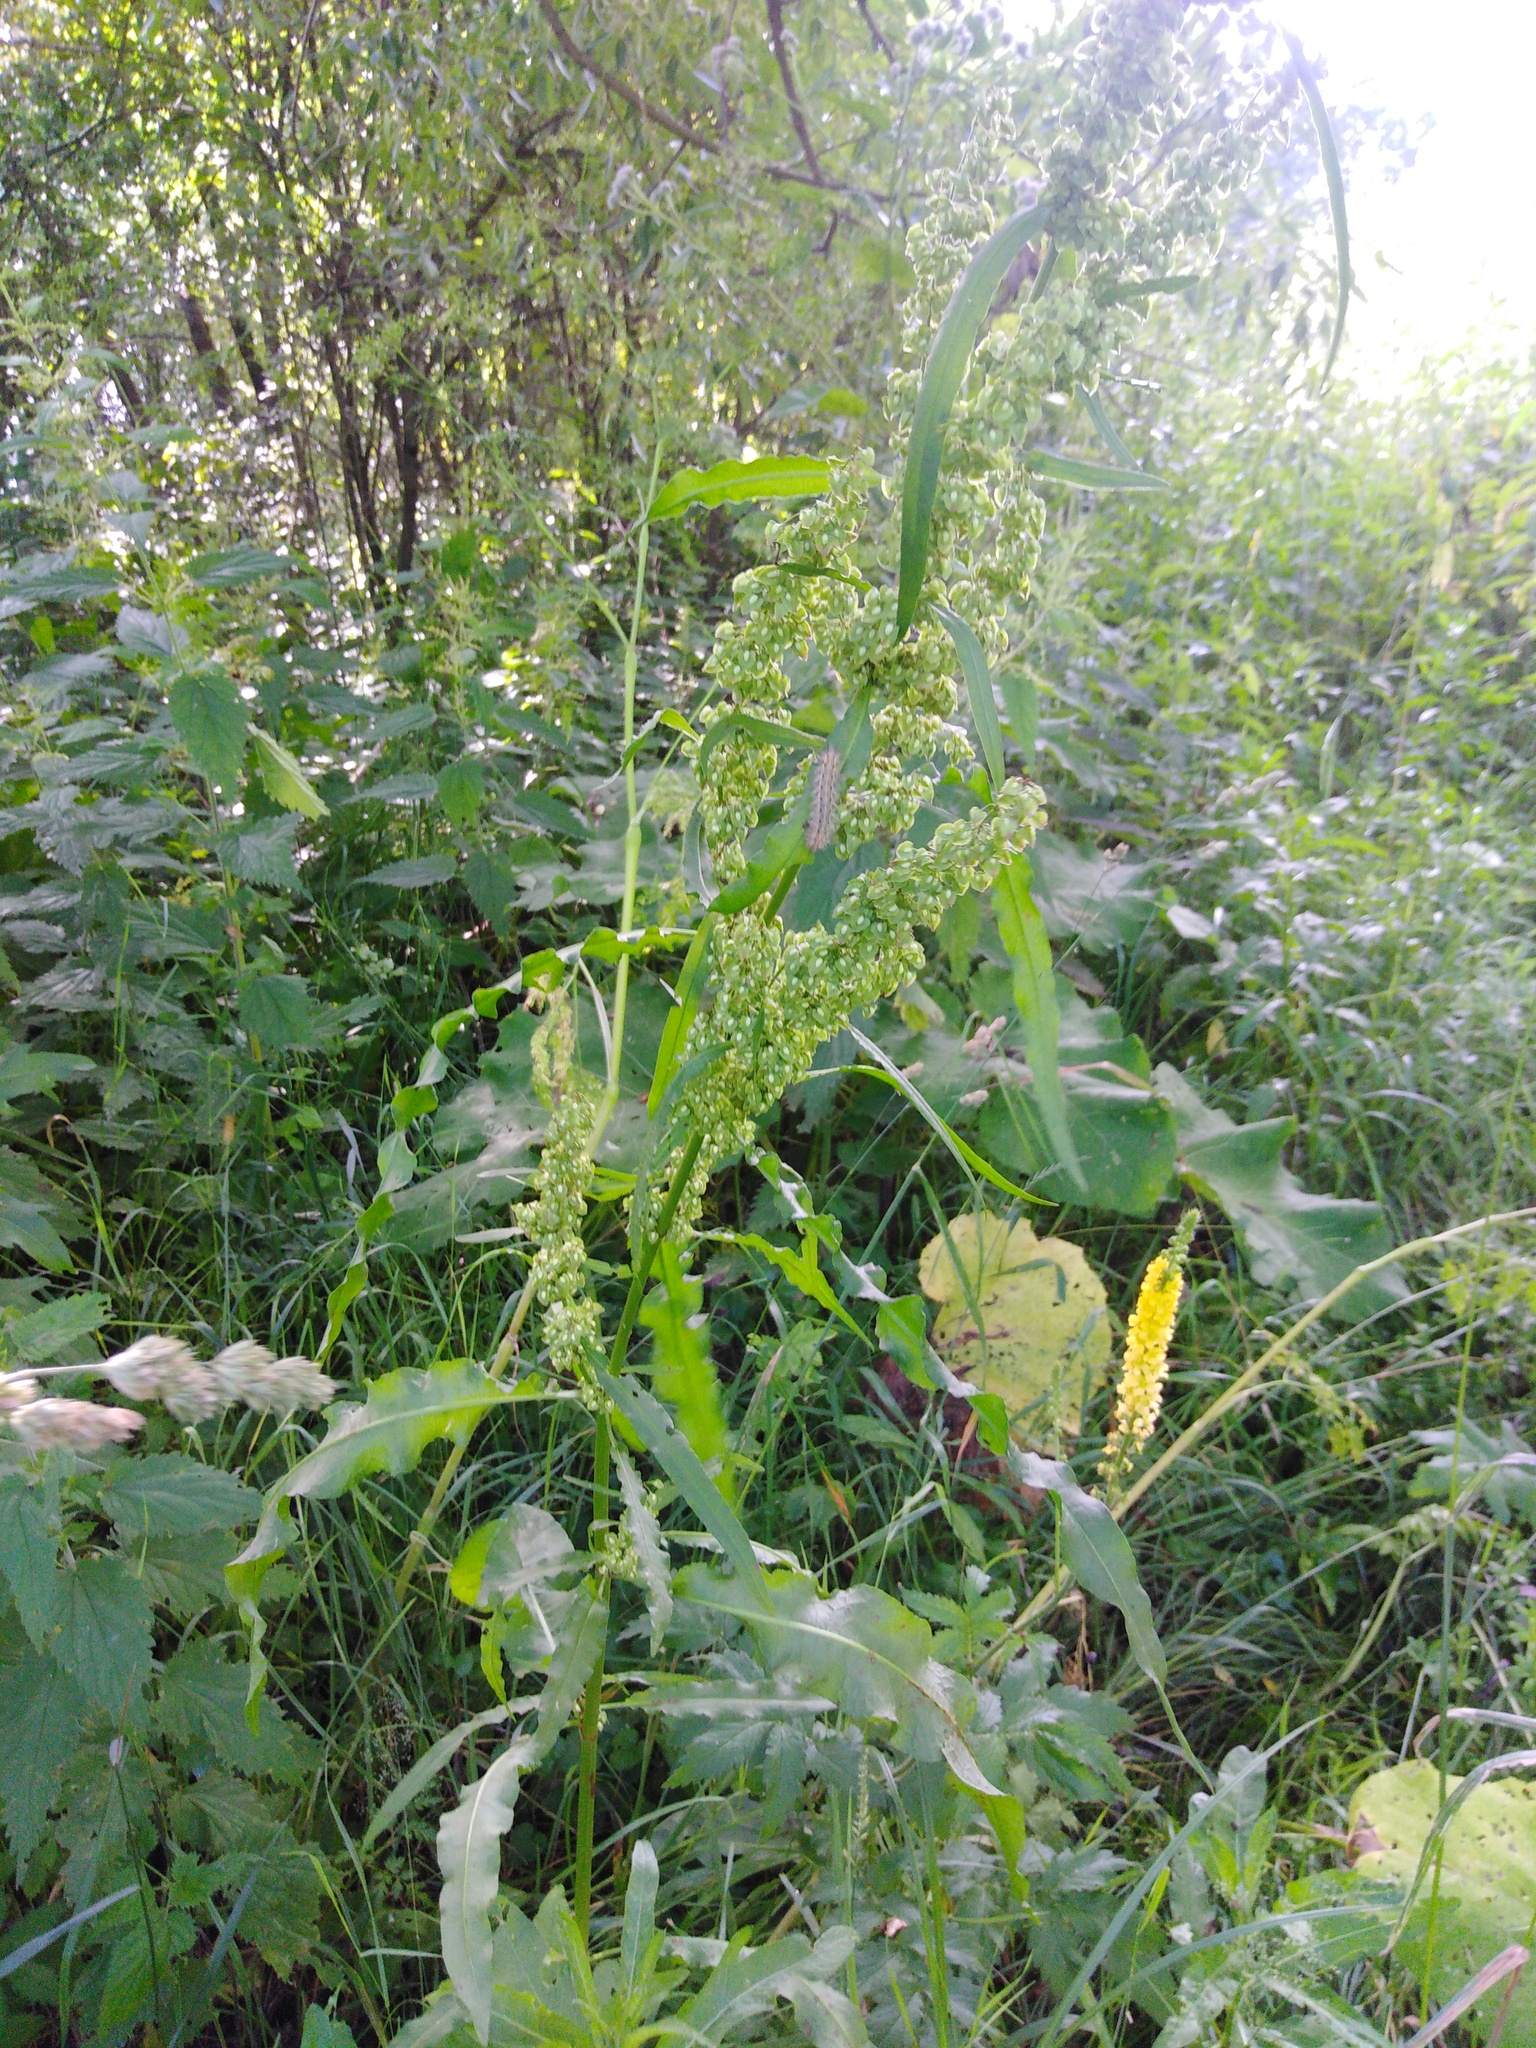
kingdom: Plantae
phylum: Tracheophyta
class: Magnoliopsida
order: Caryophyllales
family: Polygonaceae
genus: Rumex
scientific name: Rumex crispus
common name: Curled dock
